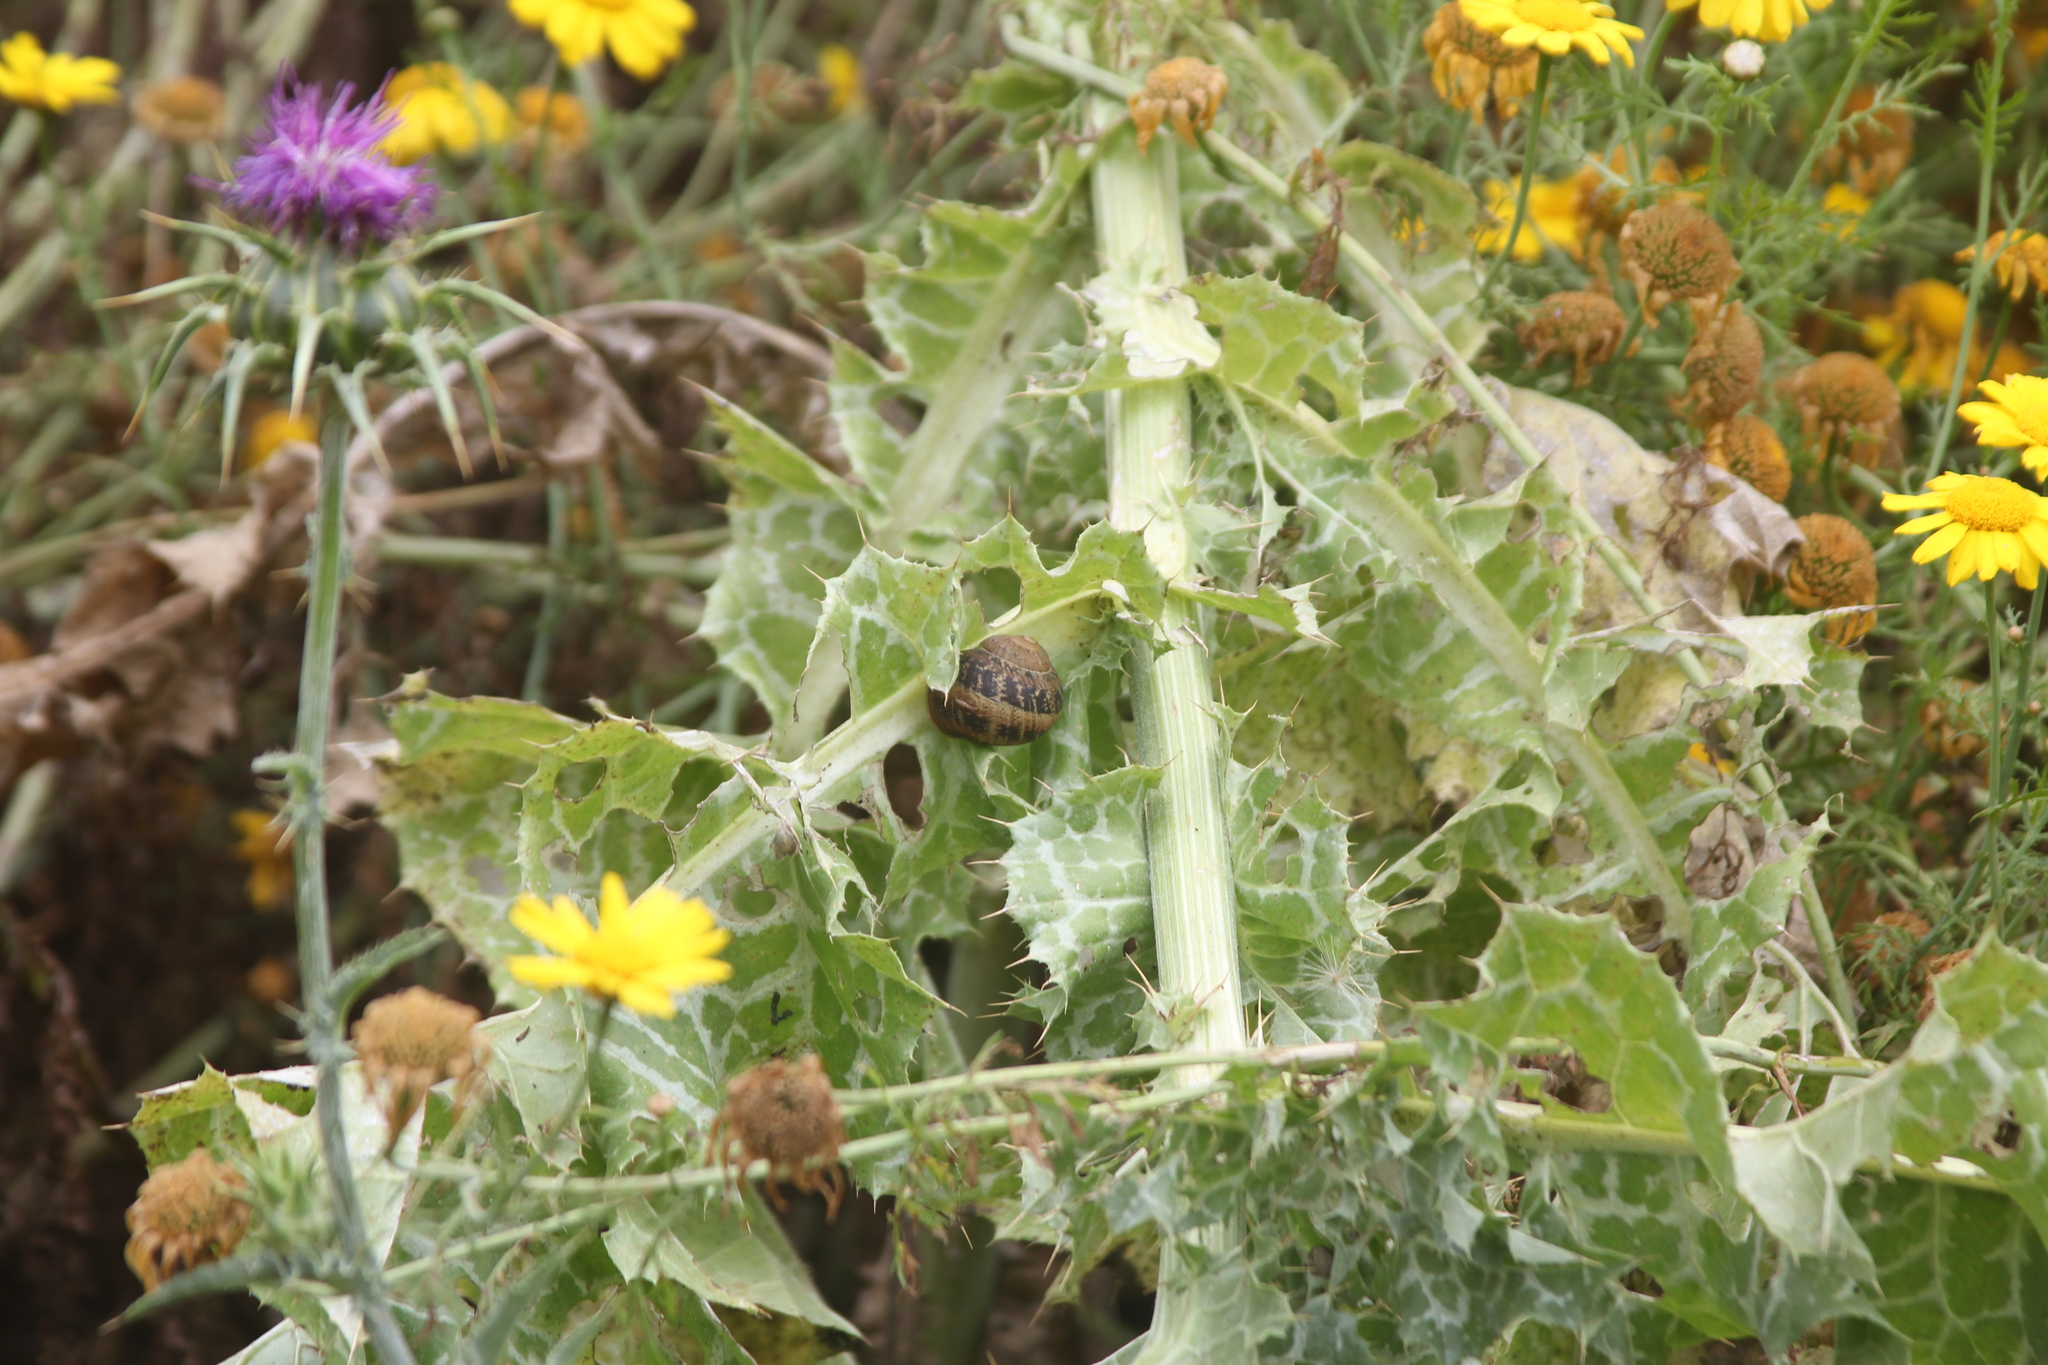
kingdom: Plantae
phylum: Tracheophyta
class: Magnoliopsida
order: Asterales
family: Asteraceae
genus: Silybum
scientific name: Silybum marianum
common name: Milk thistle
